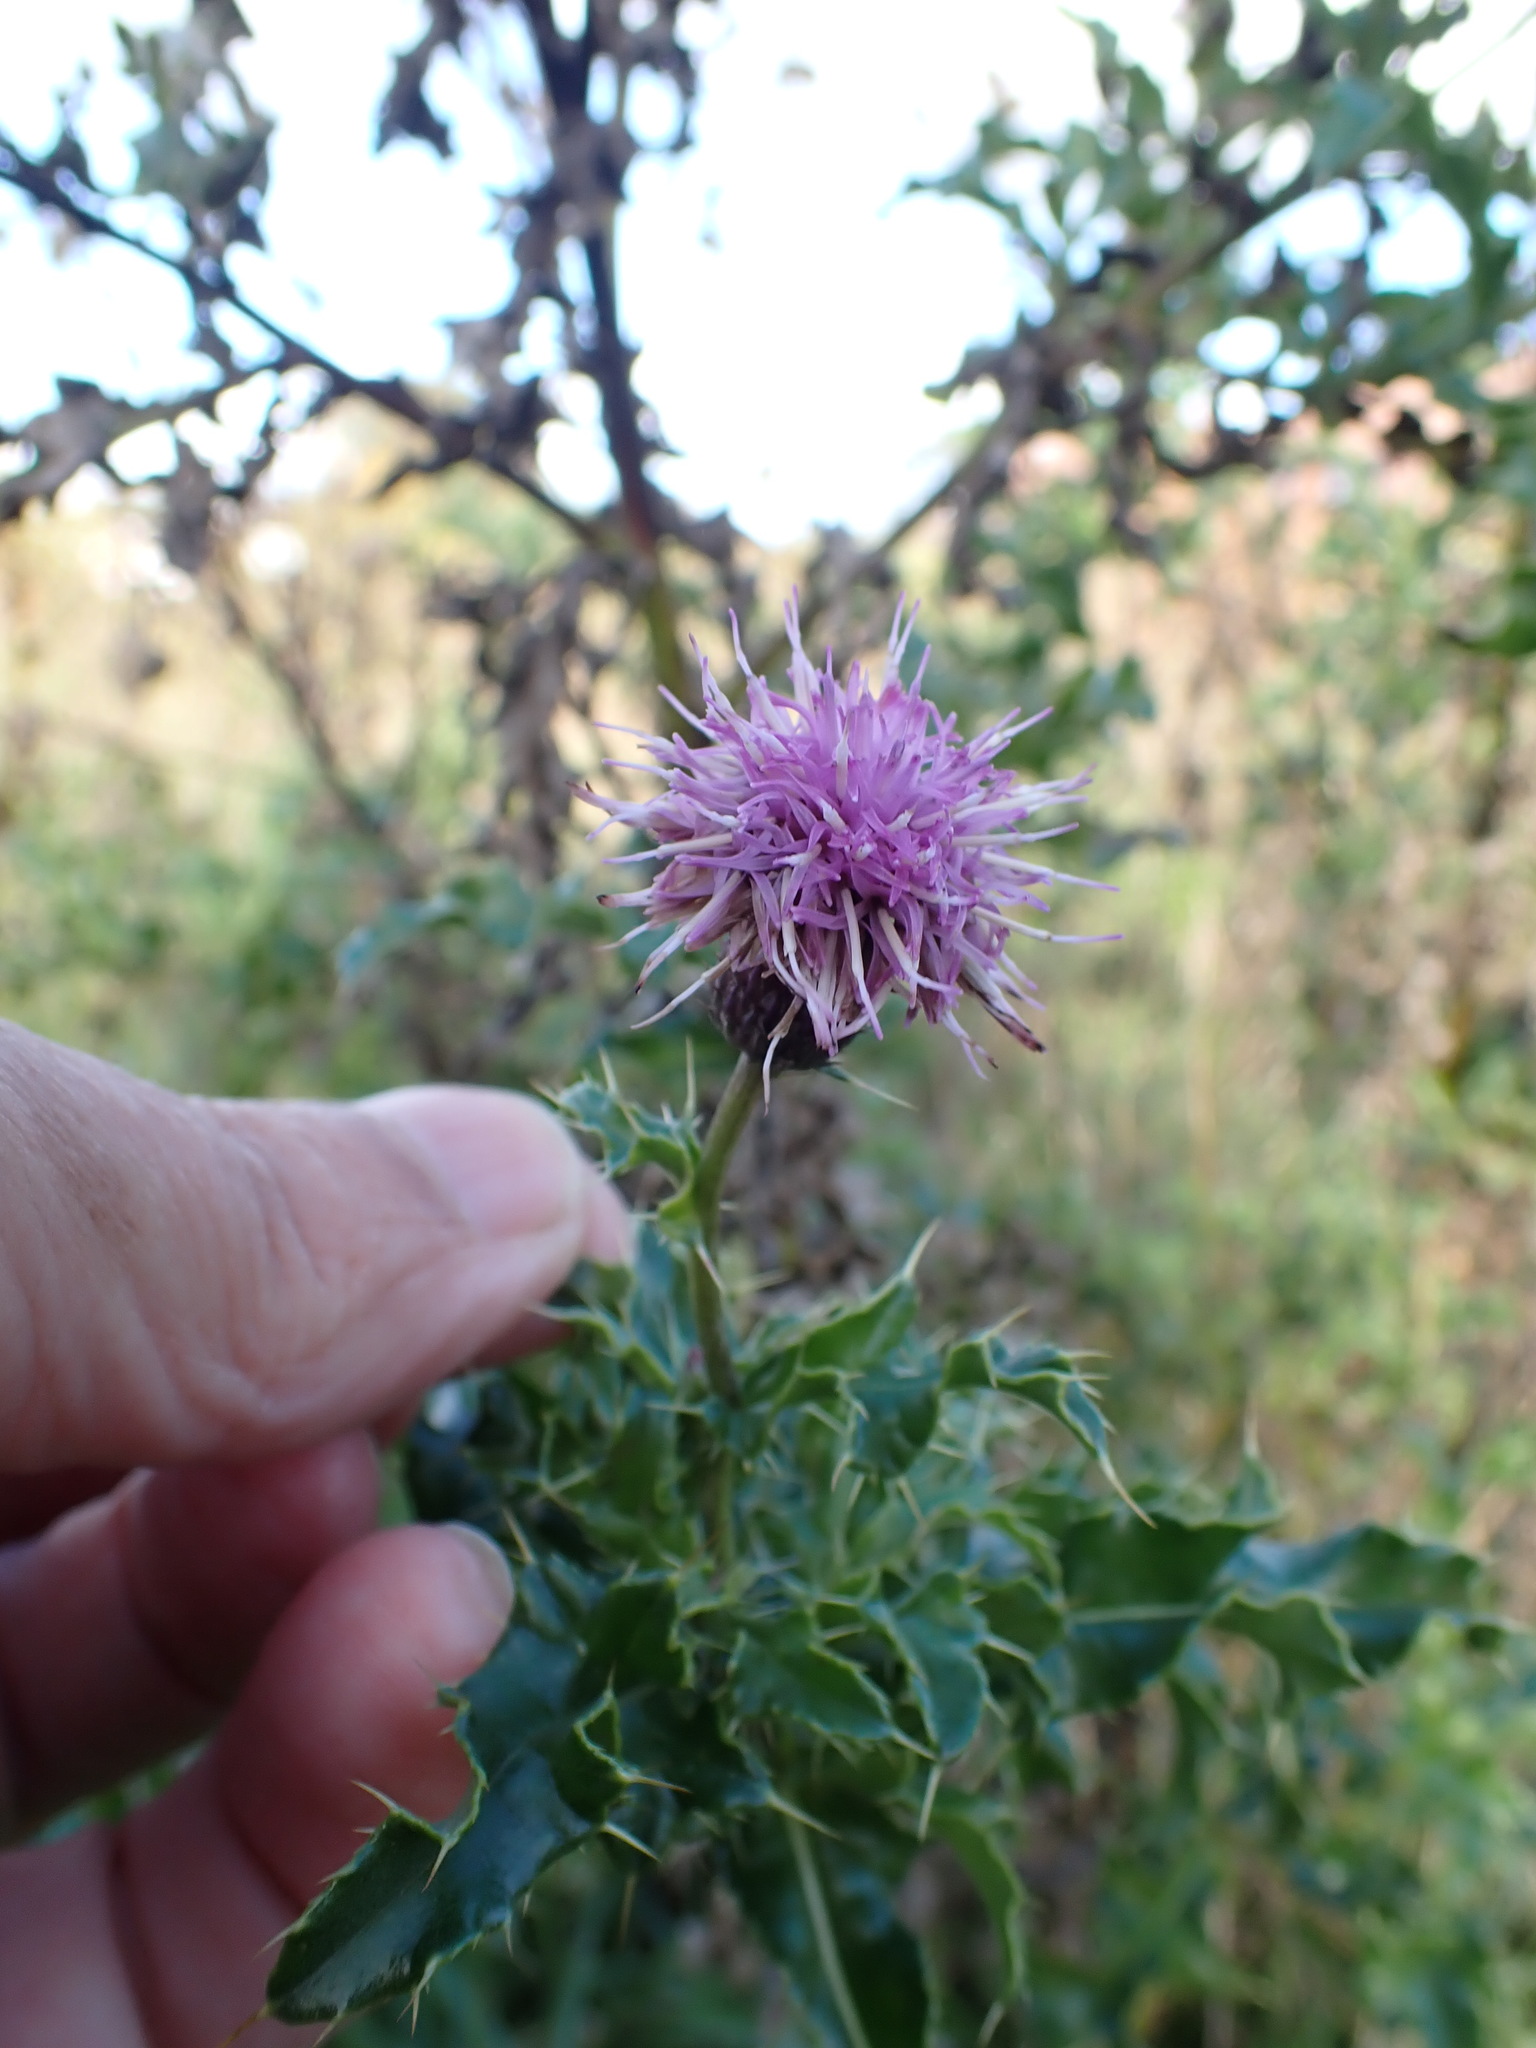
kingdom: Plantae
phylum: Tracheophyta
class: Magnoliopsida
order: Asterales
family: Asteraceae
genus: Cirsium
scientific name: Cirsium arvense
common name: Creeping thistle
